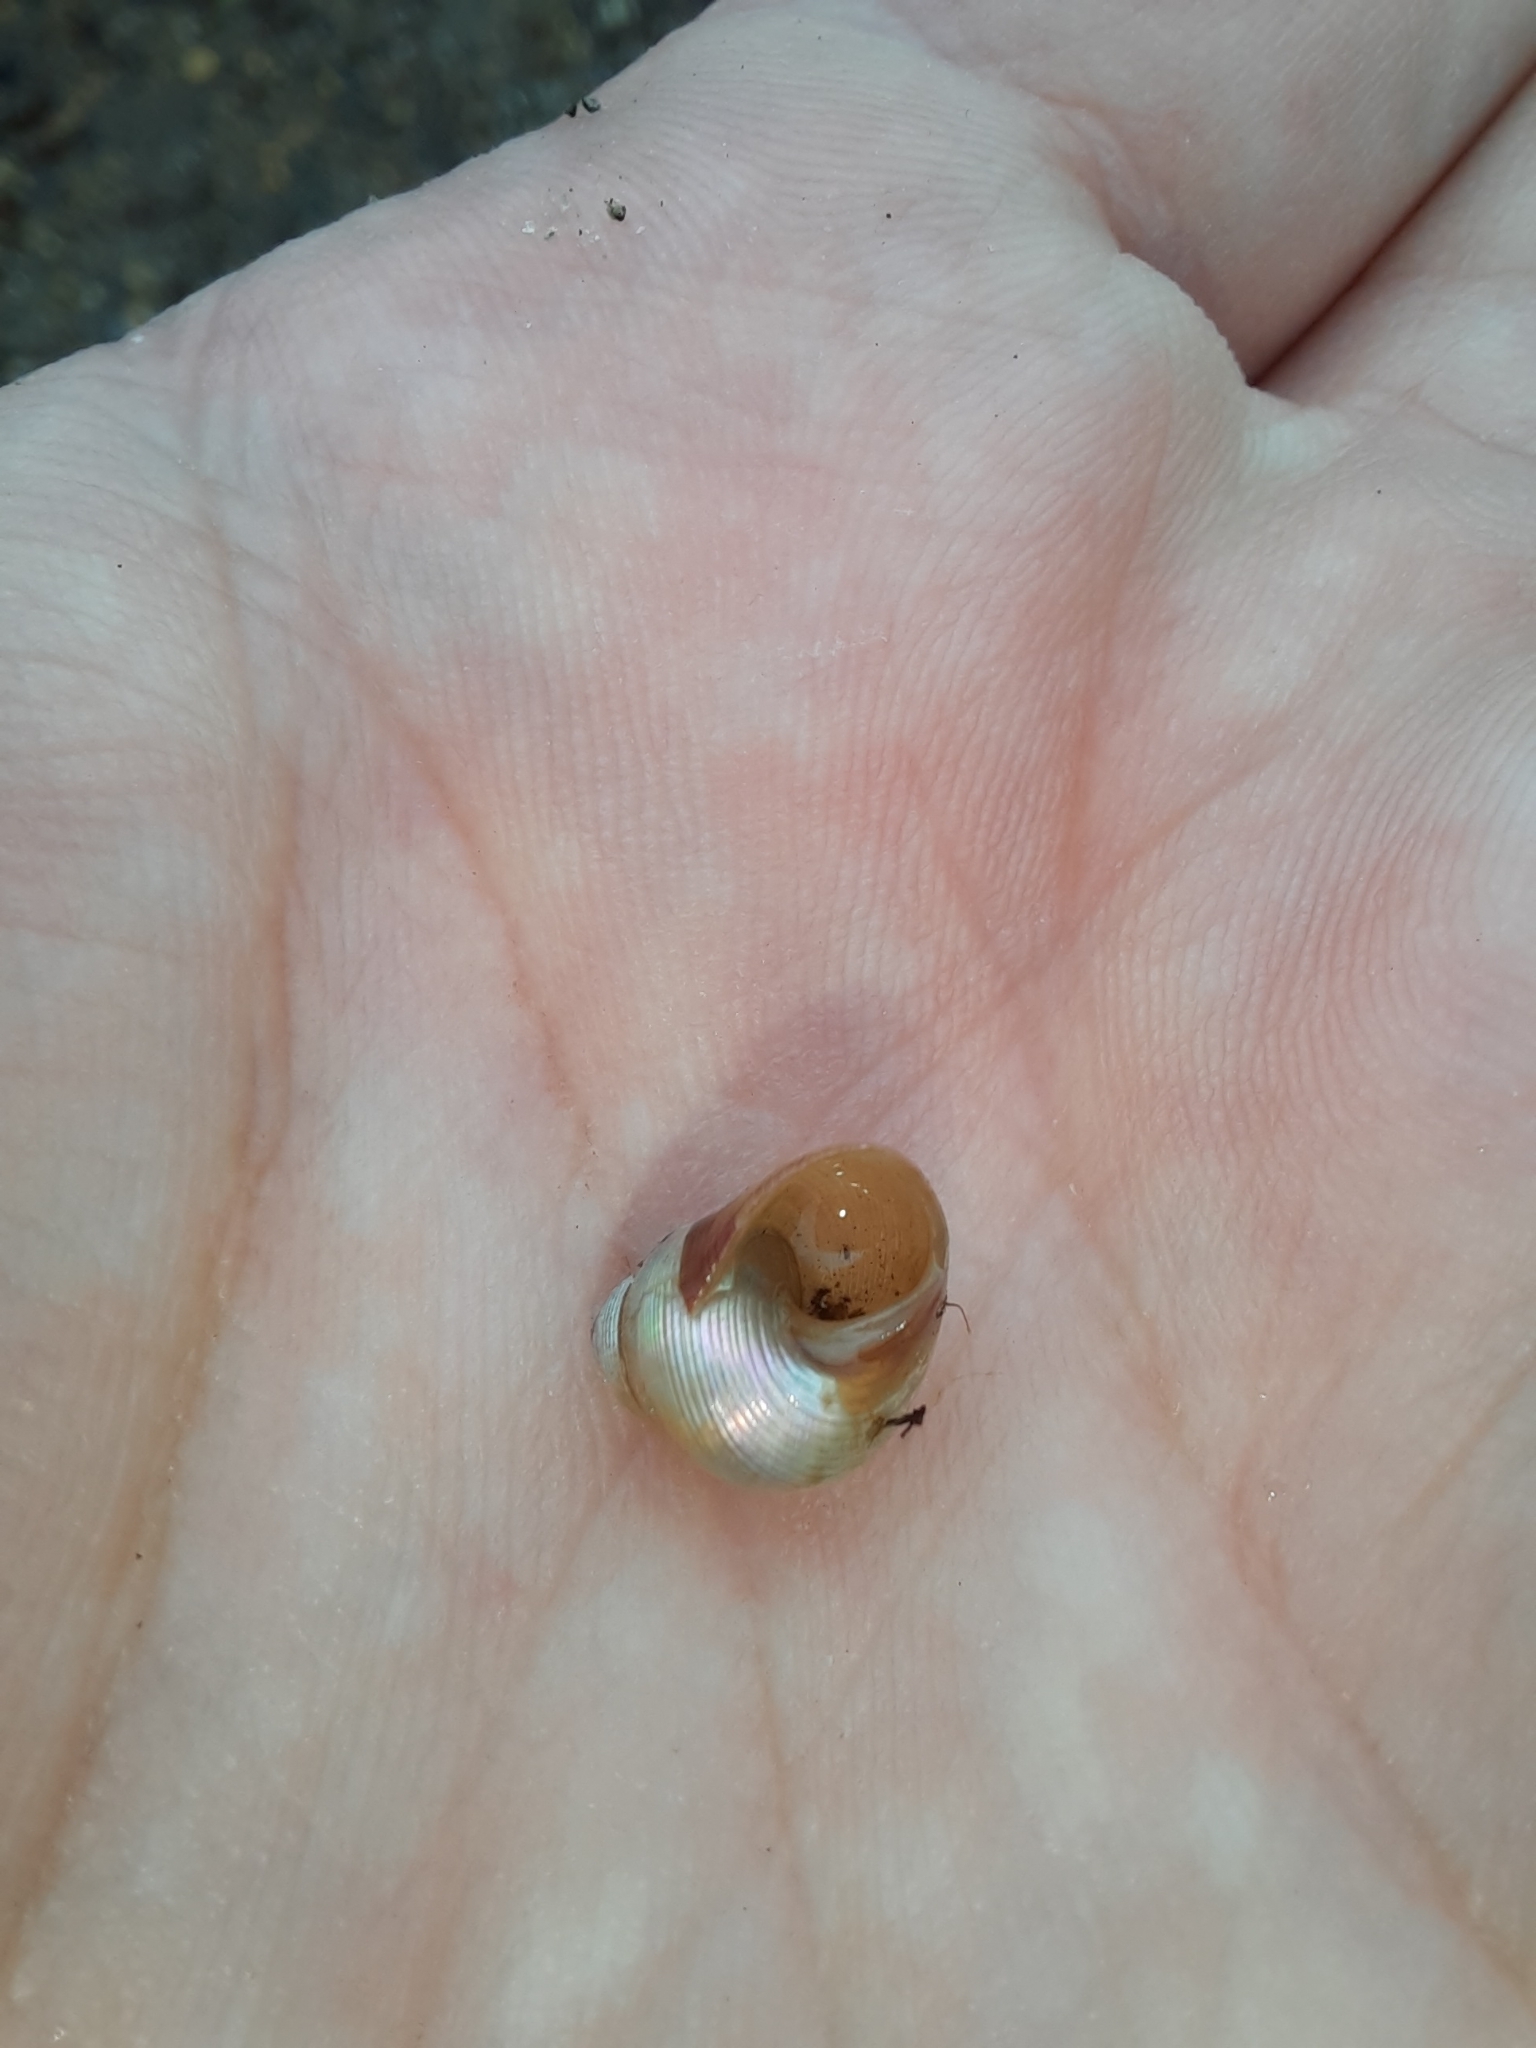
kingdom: Animalia
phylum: Mollusca
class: Gastropoda
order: Trochida
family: Trochidae
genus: Cantharidus
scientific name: Cantharidus capillaceus
